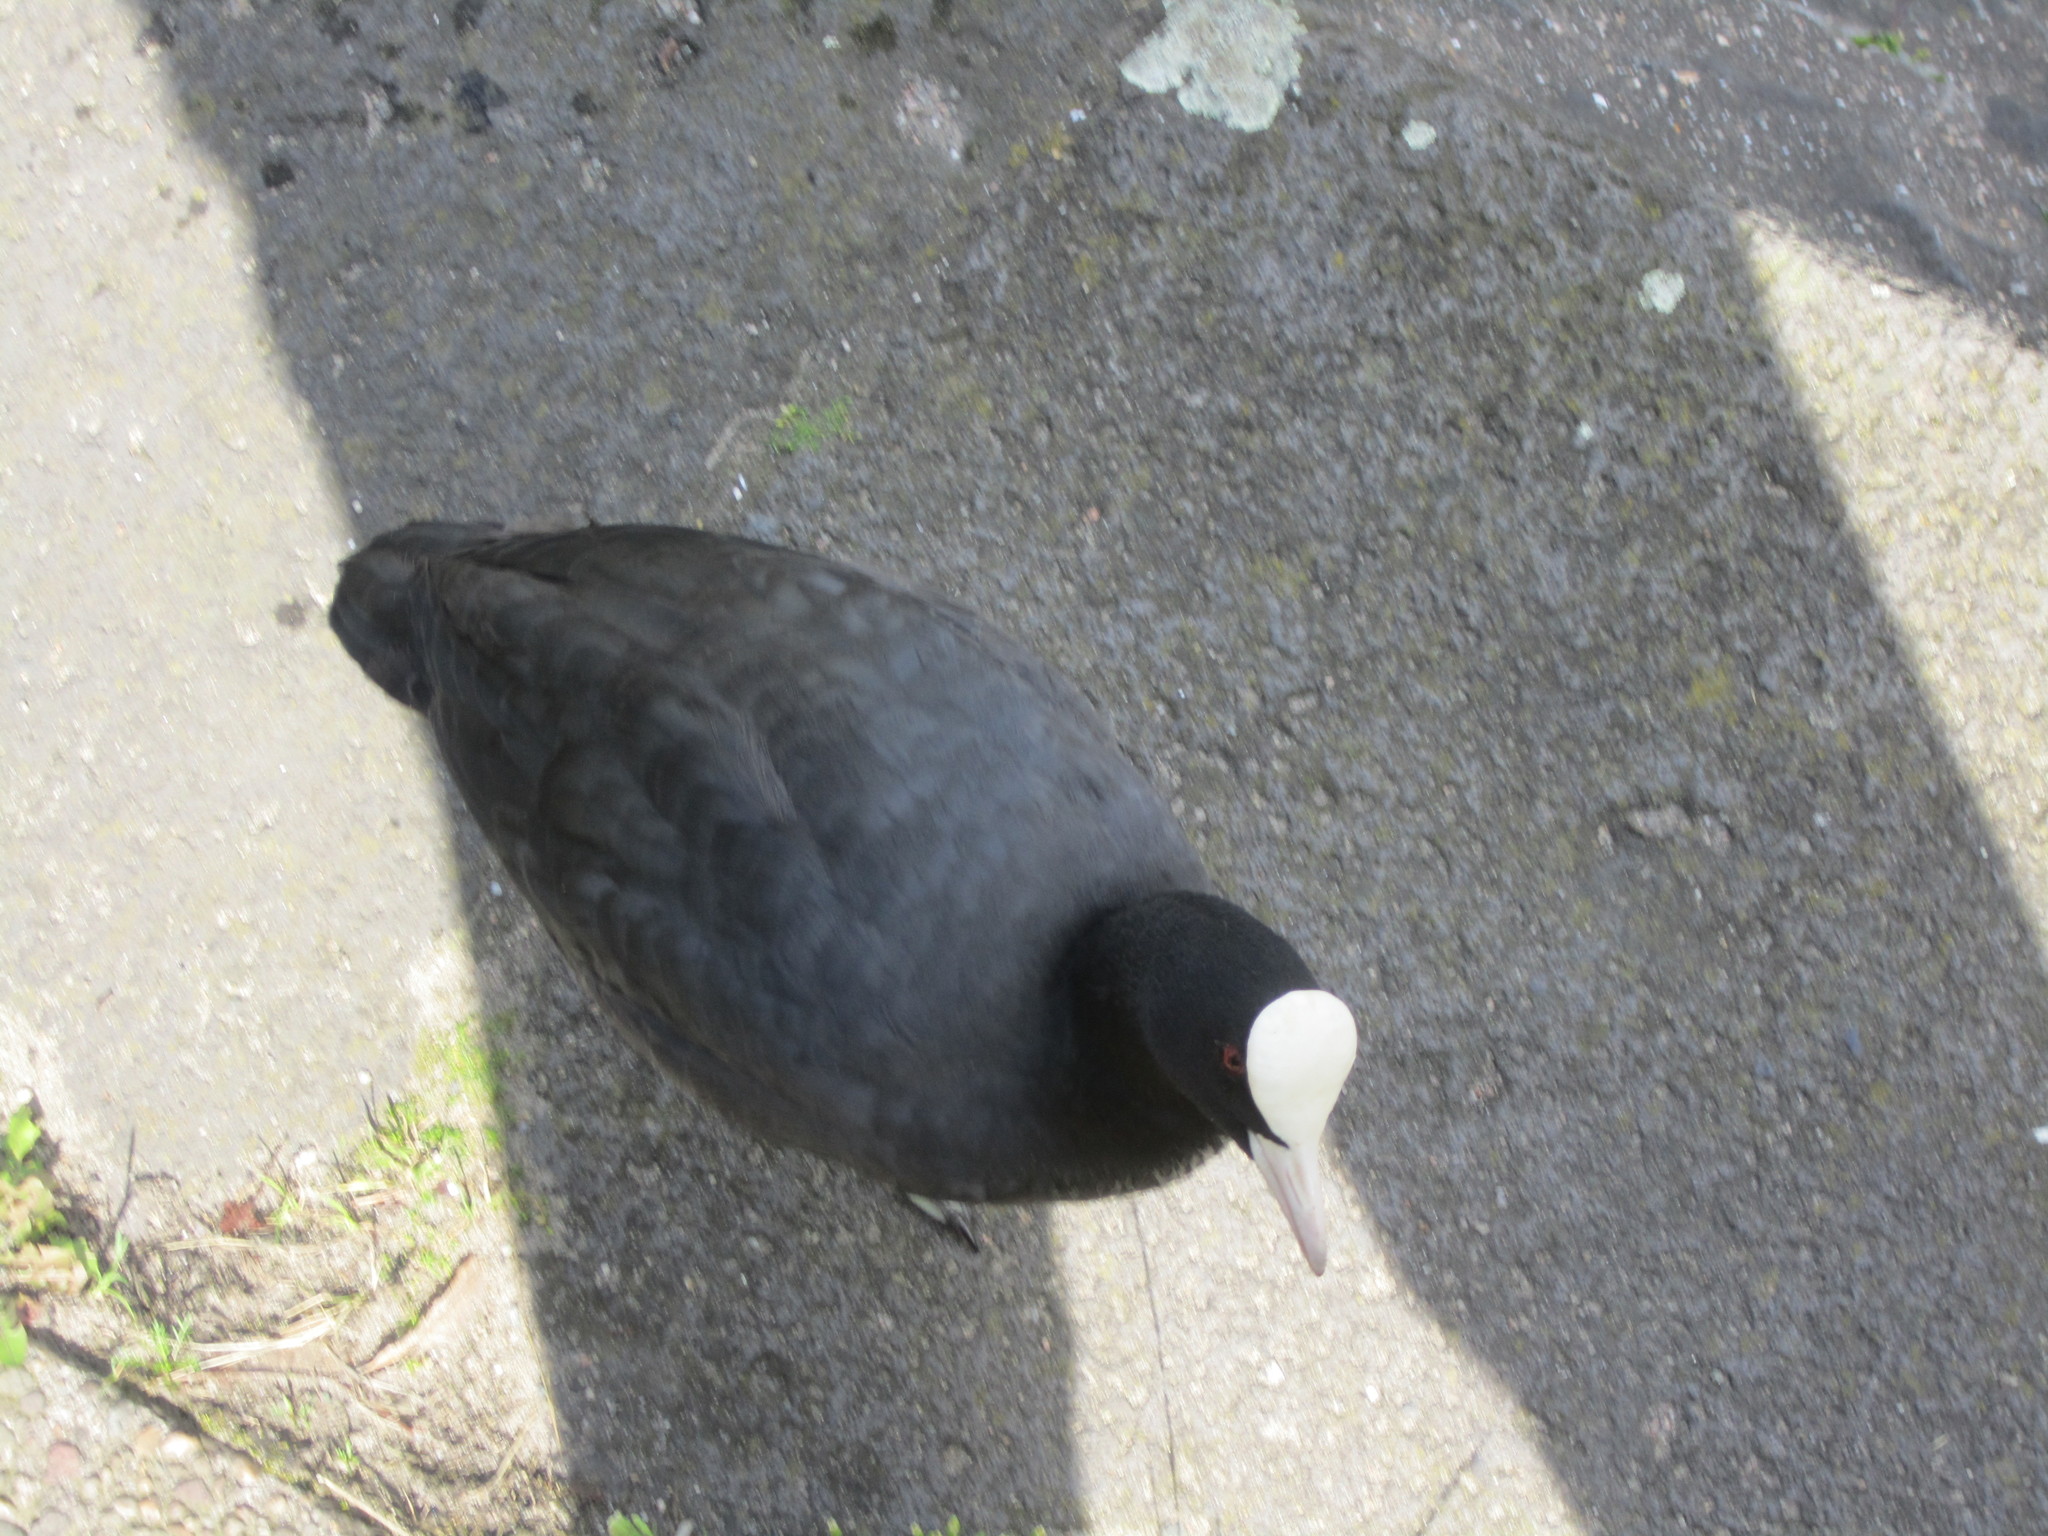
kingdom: Animalia
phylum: Chordata
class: Aves
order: Gruiformes
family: Rallidae
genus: Fulica
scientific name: Fulica atra
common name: Eurasian coot
